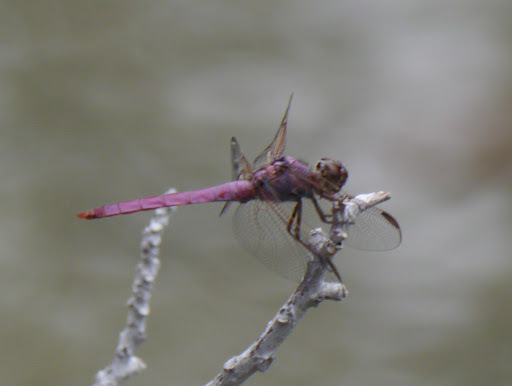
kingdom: Animalia
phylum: Arthropoda
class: Insecta
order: Odonata
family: Libellulidae
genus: Orthemis
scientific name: Orthemis ferruginea
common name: Roseate skimmer
